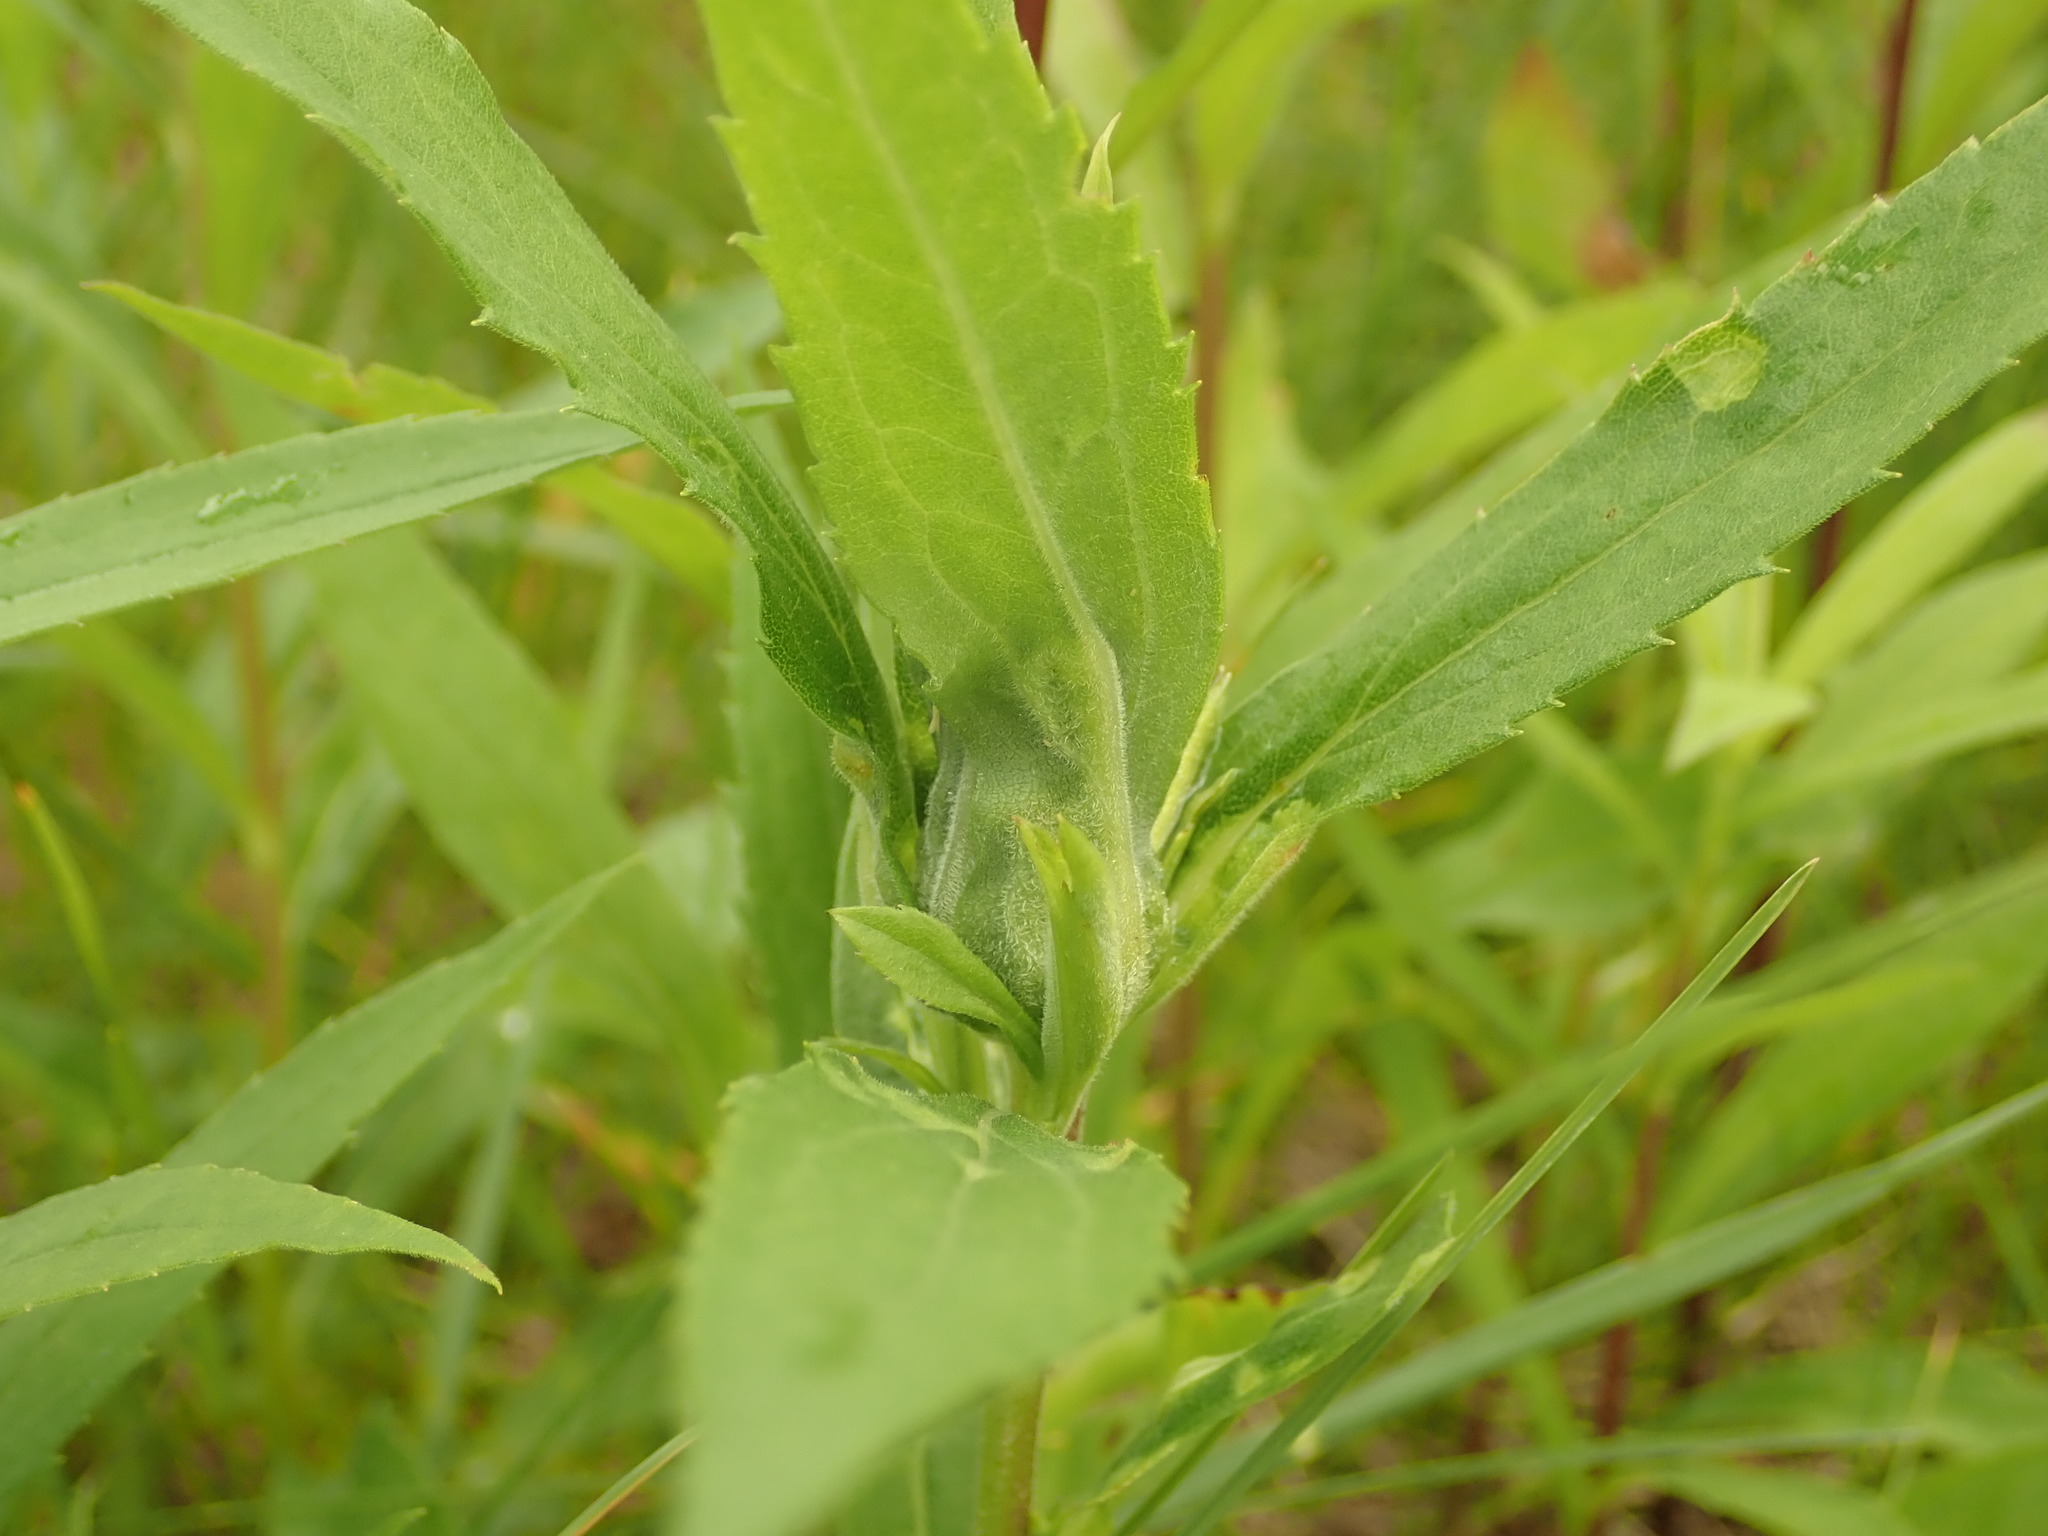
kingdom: Animalia
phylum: Arthropoda
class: Insecta
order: Diptera
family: Cecidomyiidae
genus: Dasineura
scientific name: Dasineura folliculi
